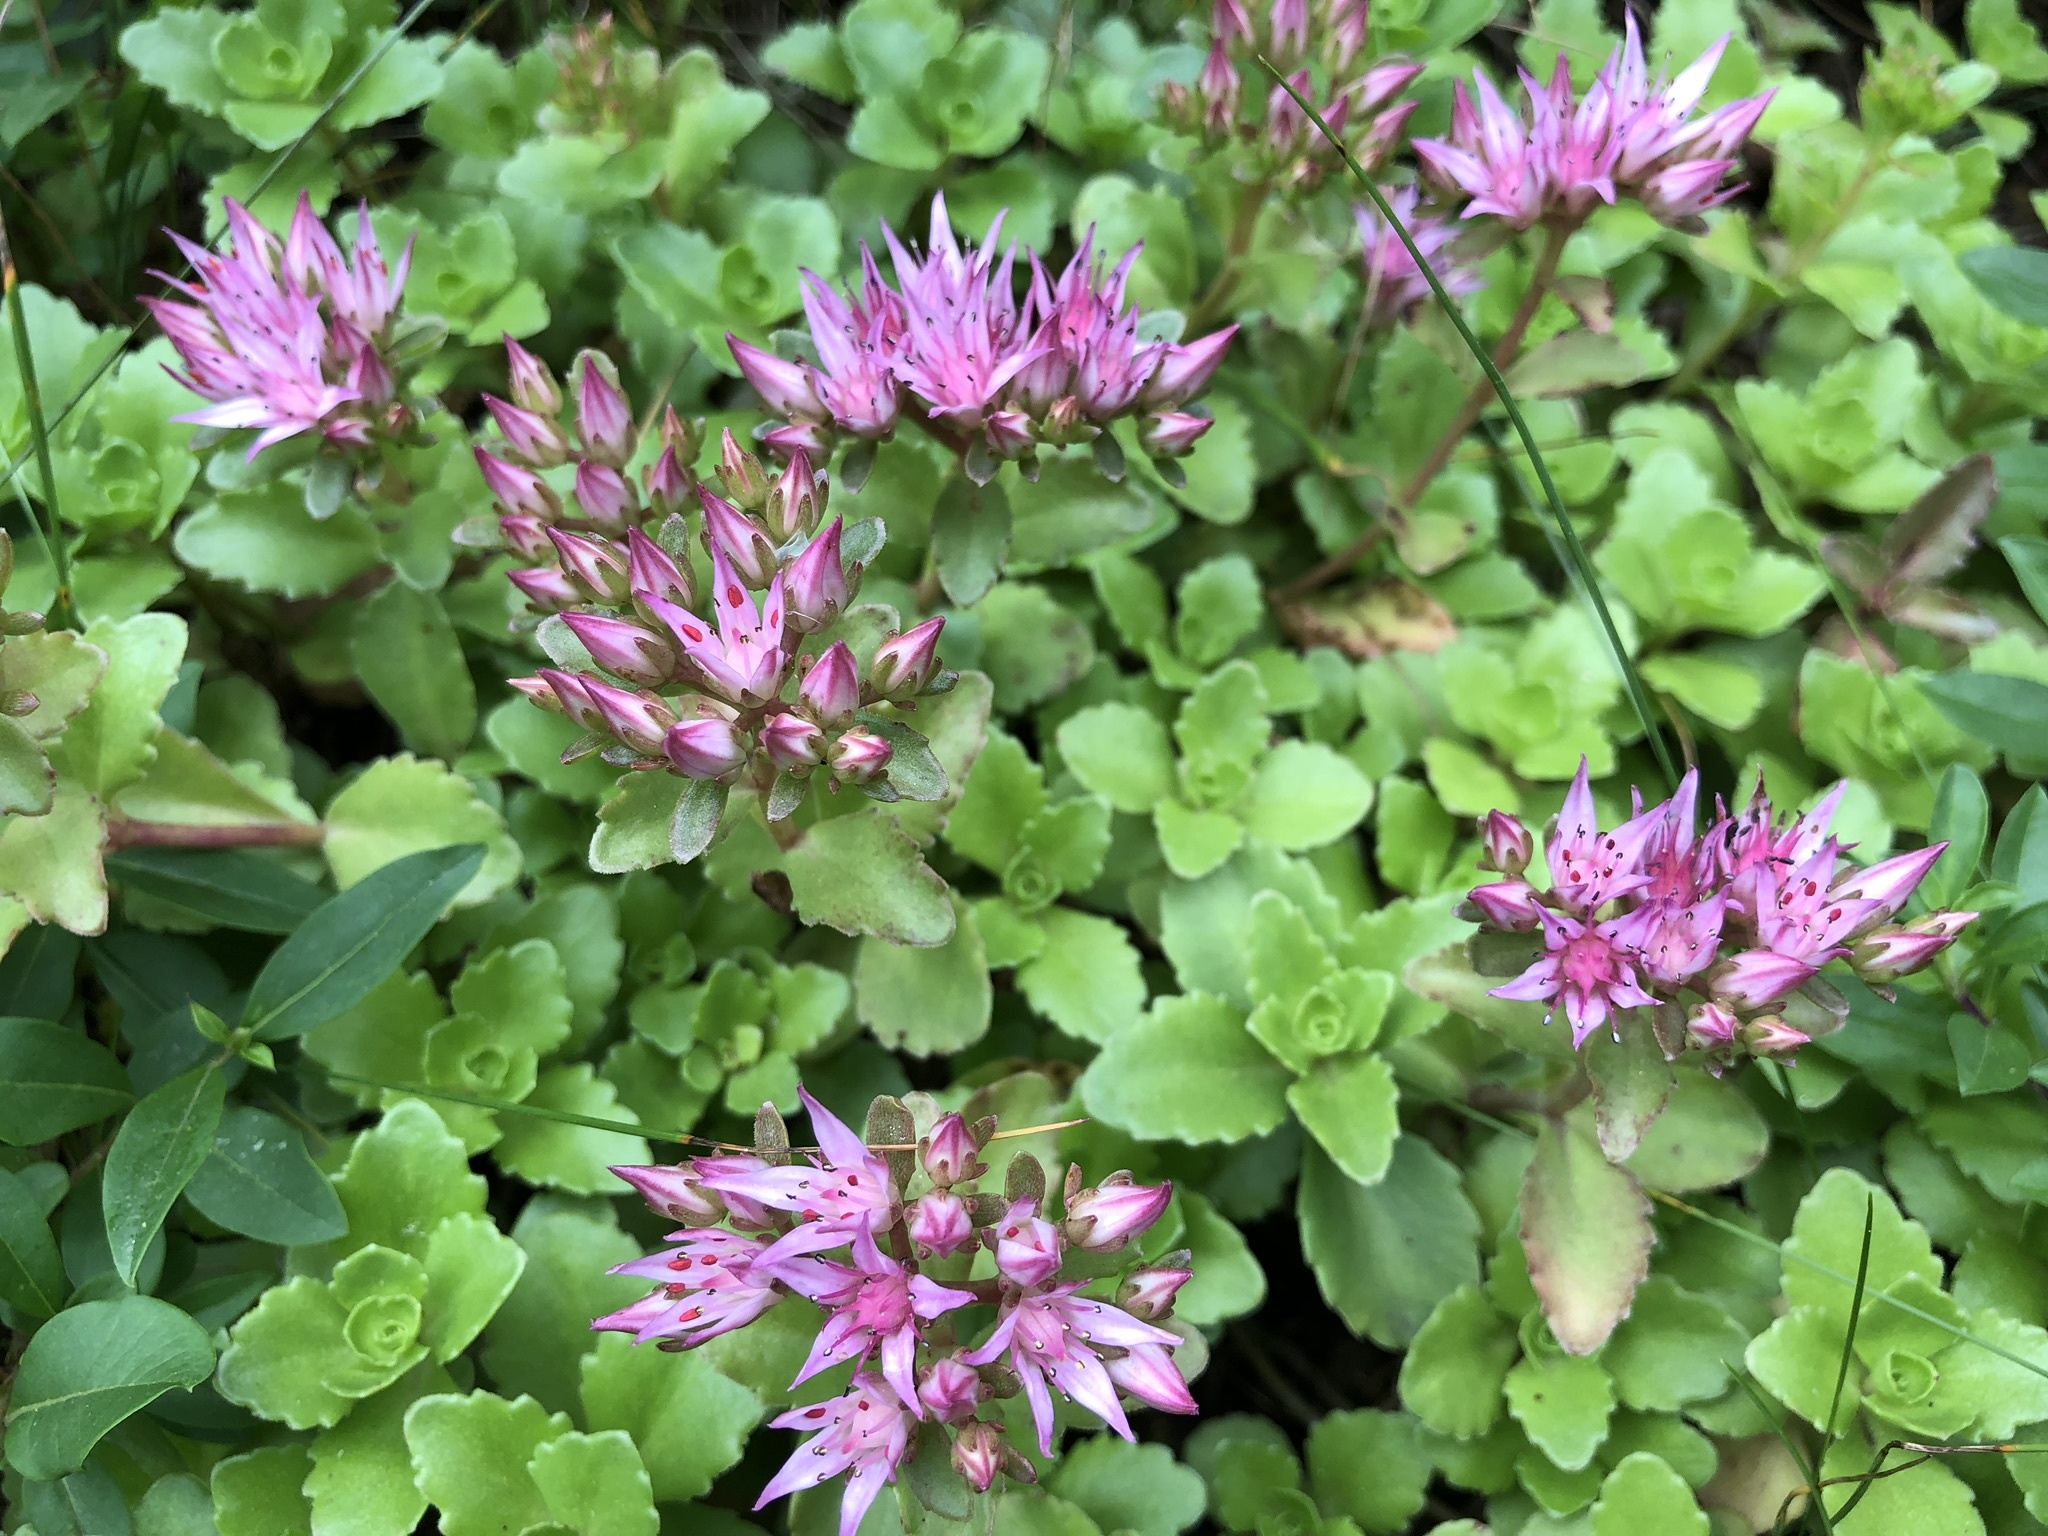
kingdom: Plantae
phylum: Tracheophyta
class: Magnoliopsida
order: Saxifragales
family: Crassulaceae
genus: Phedimus
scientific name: Phedimus spurius
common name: Caucasian stonecrop
